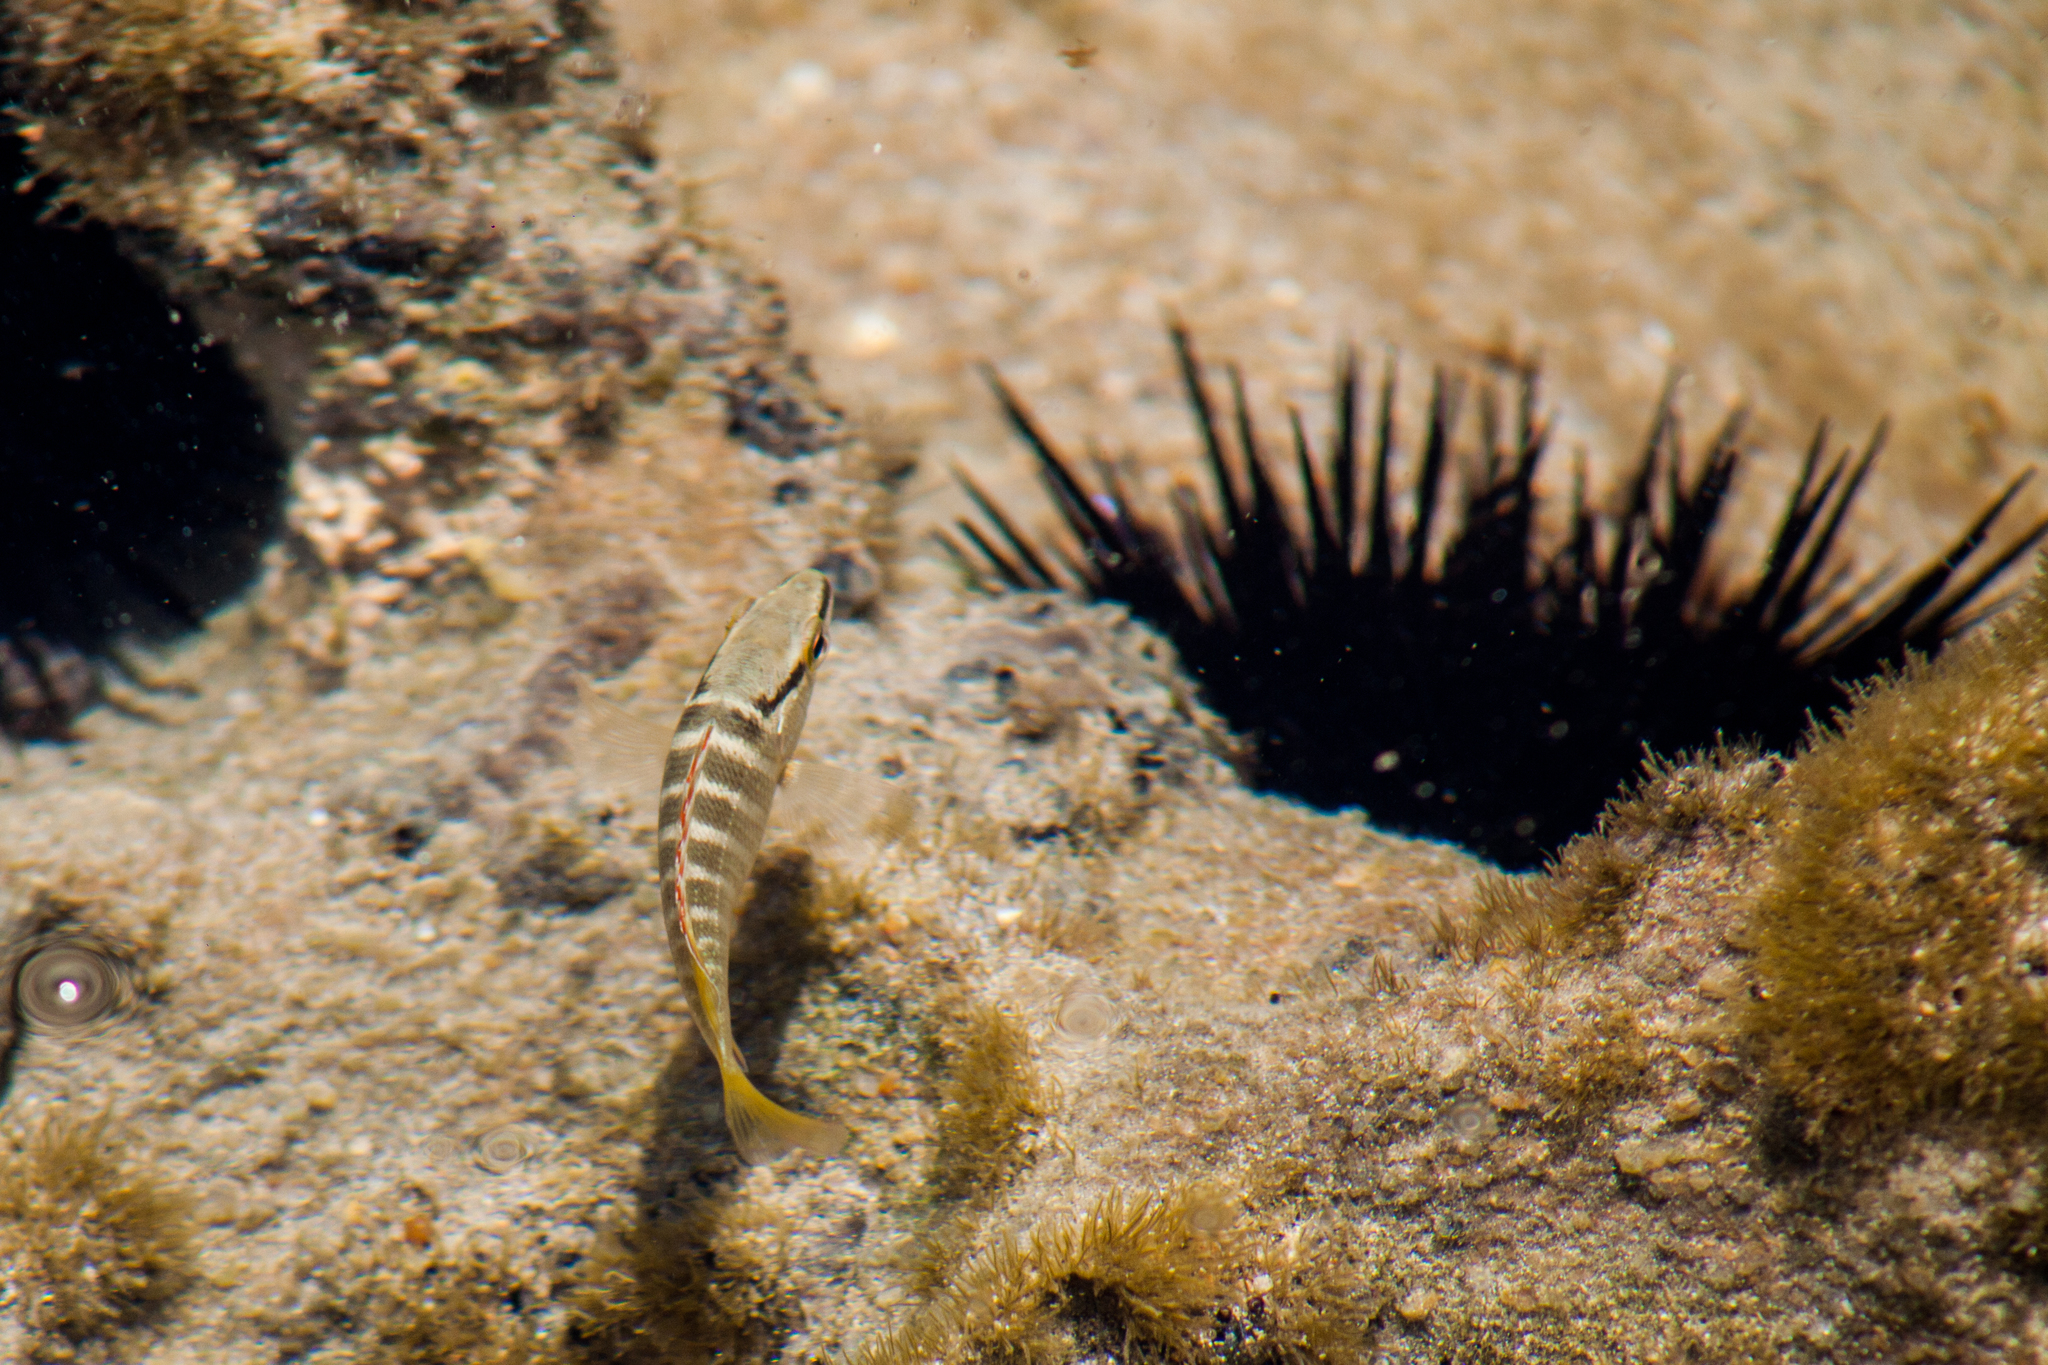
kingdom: Animalia
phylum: Chordata
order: Perciformes
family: Lutjanidae
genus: Lutjanus
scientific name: Lutjanus alexandrei
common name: Brazilian snapper
